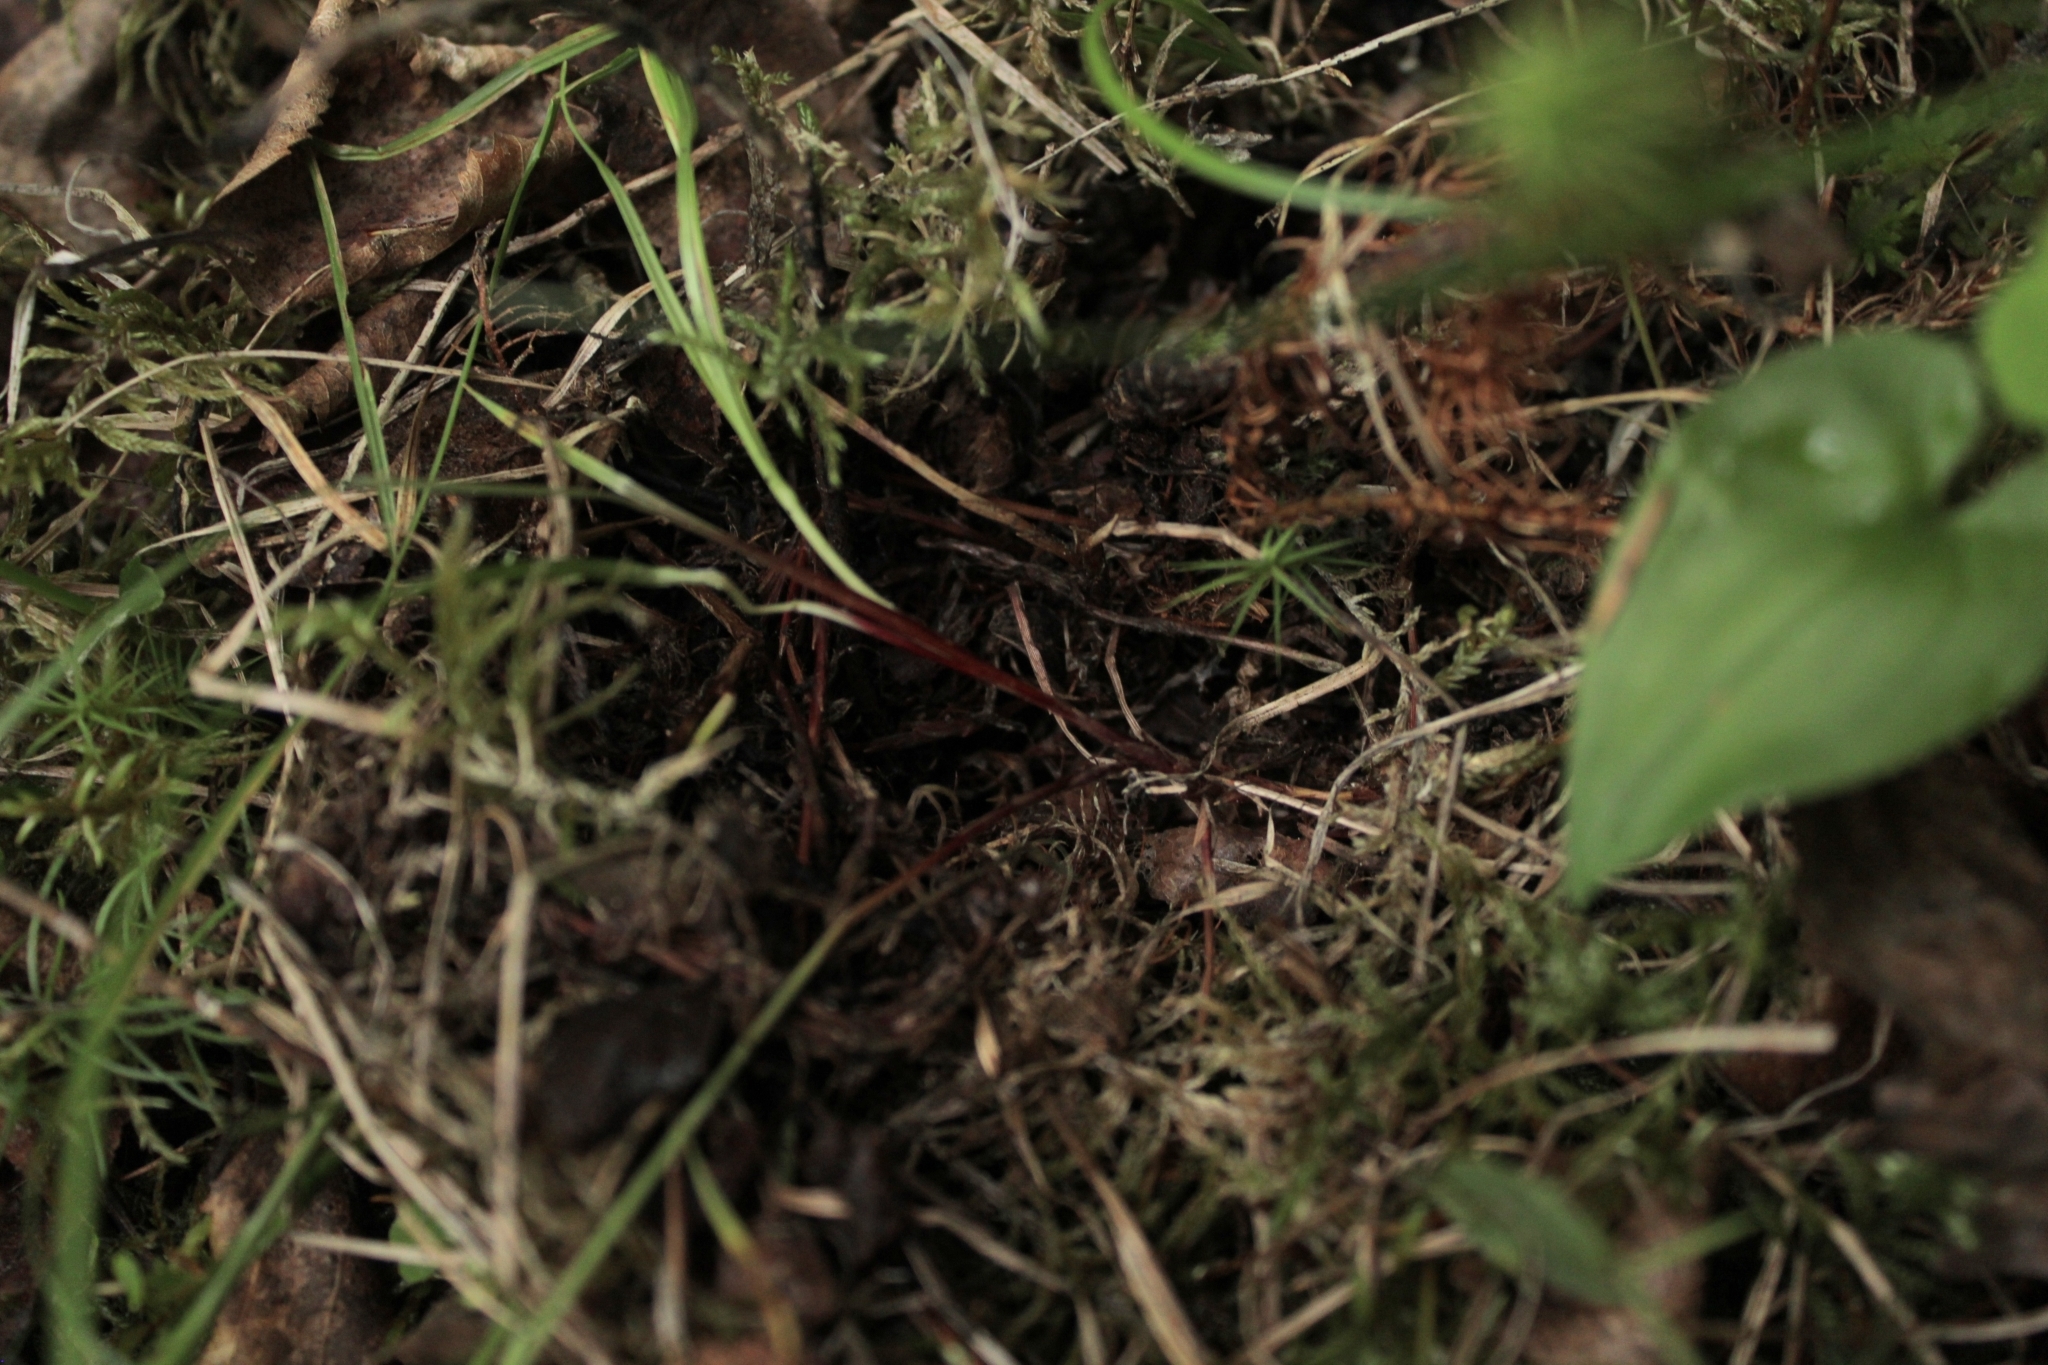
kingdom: Plantae
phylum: Tracheophyta
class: Liliopsida
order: Poales
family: Cyperaceae
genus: Carex
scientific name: Carex globularis
